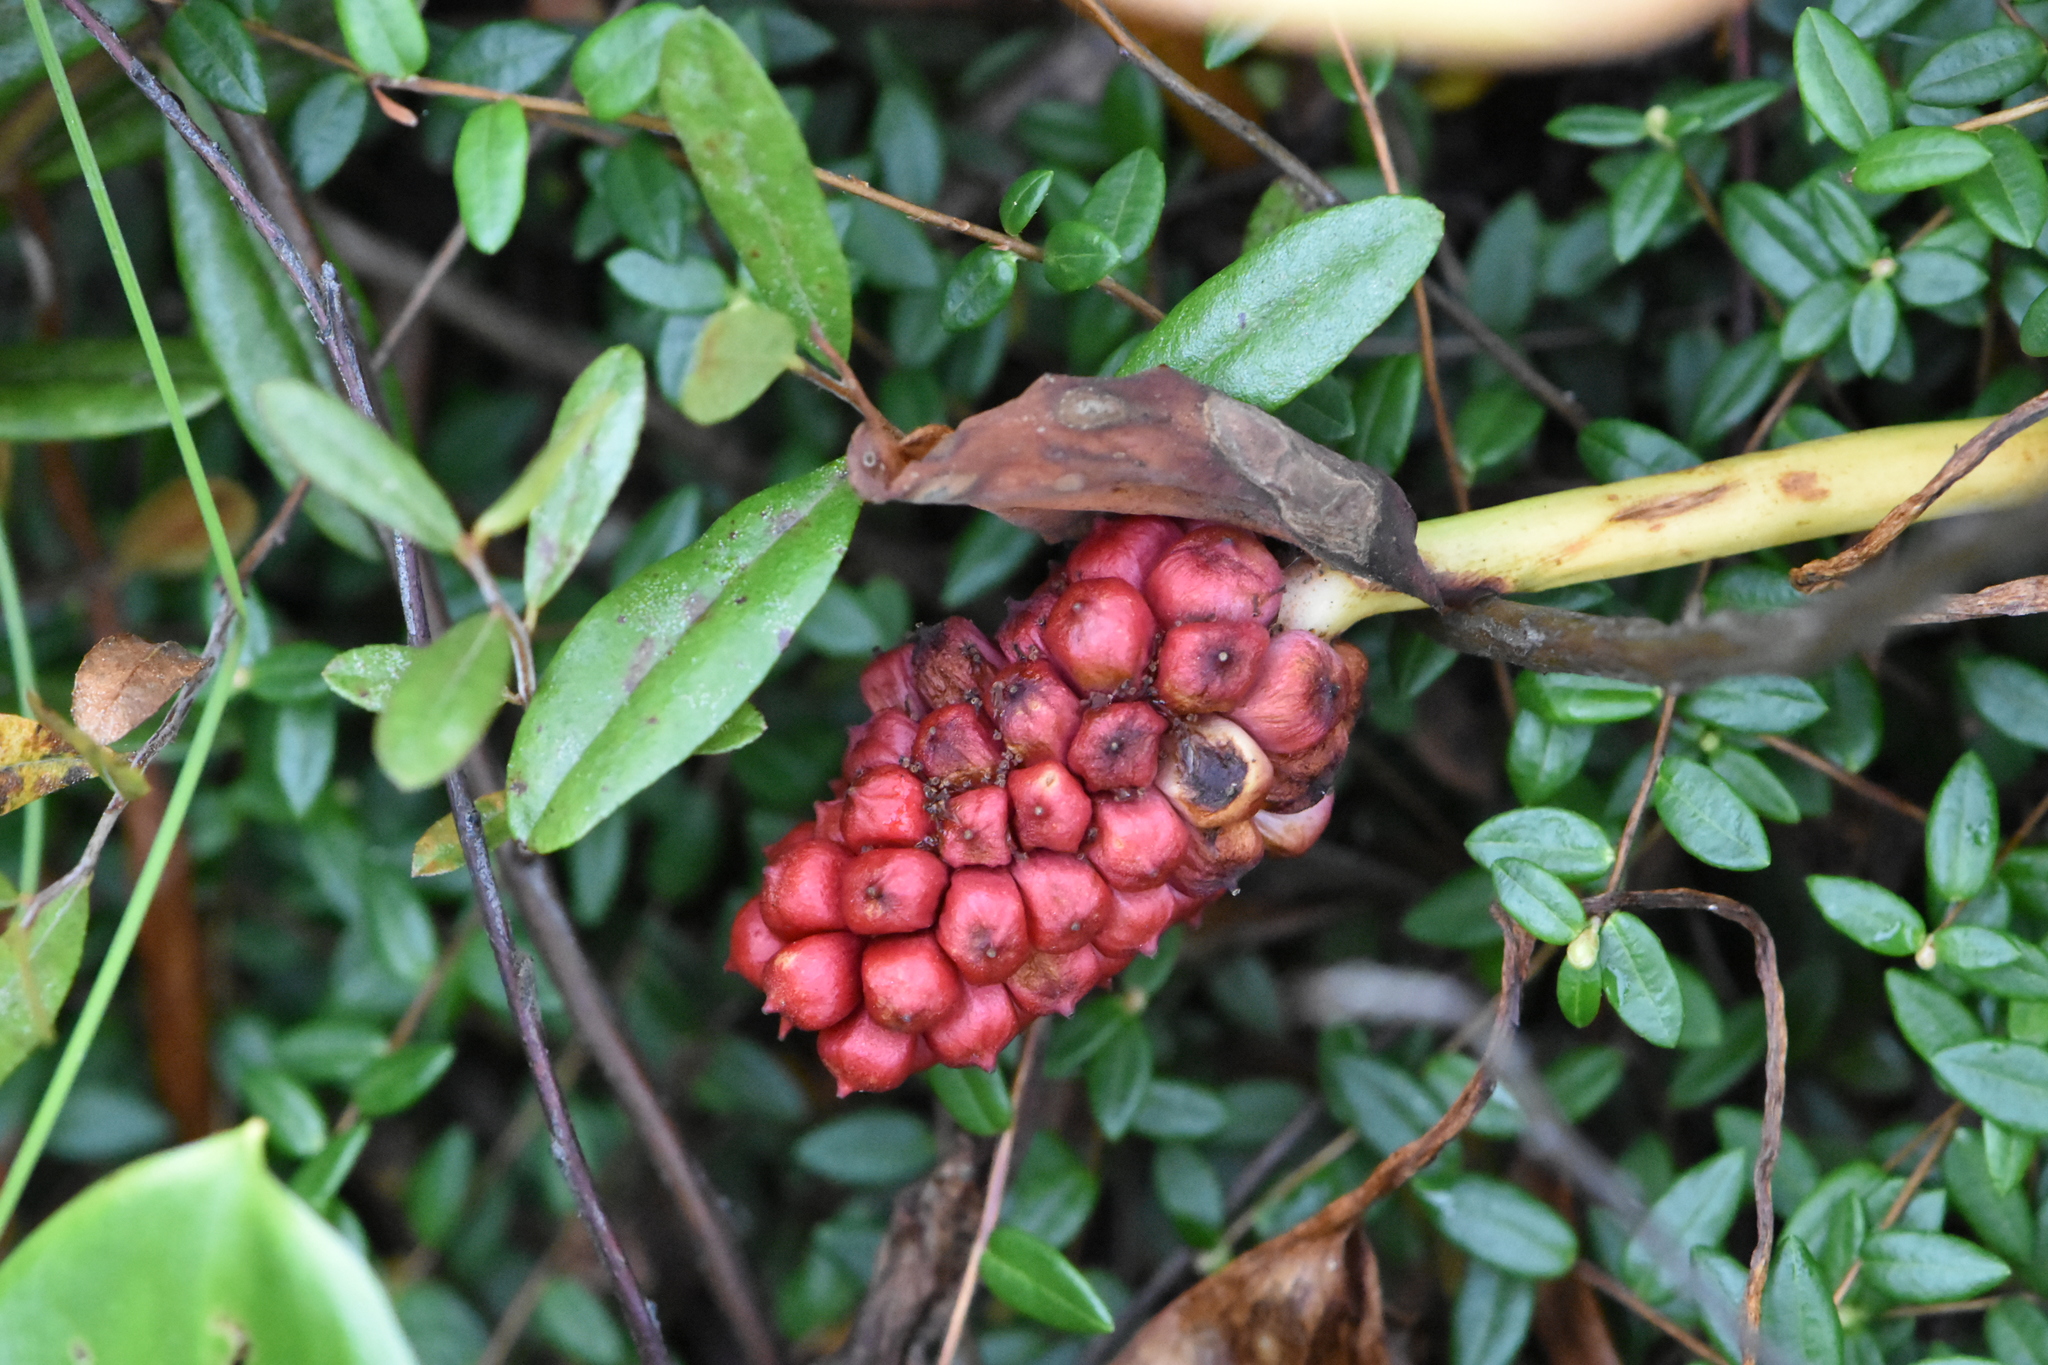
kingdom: Plantae
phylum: Tracheophyta
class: Liliopsida
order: Alismatales
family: Araceae
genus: Calla
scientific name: Calla palustris
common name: Bog arum
